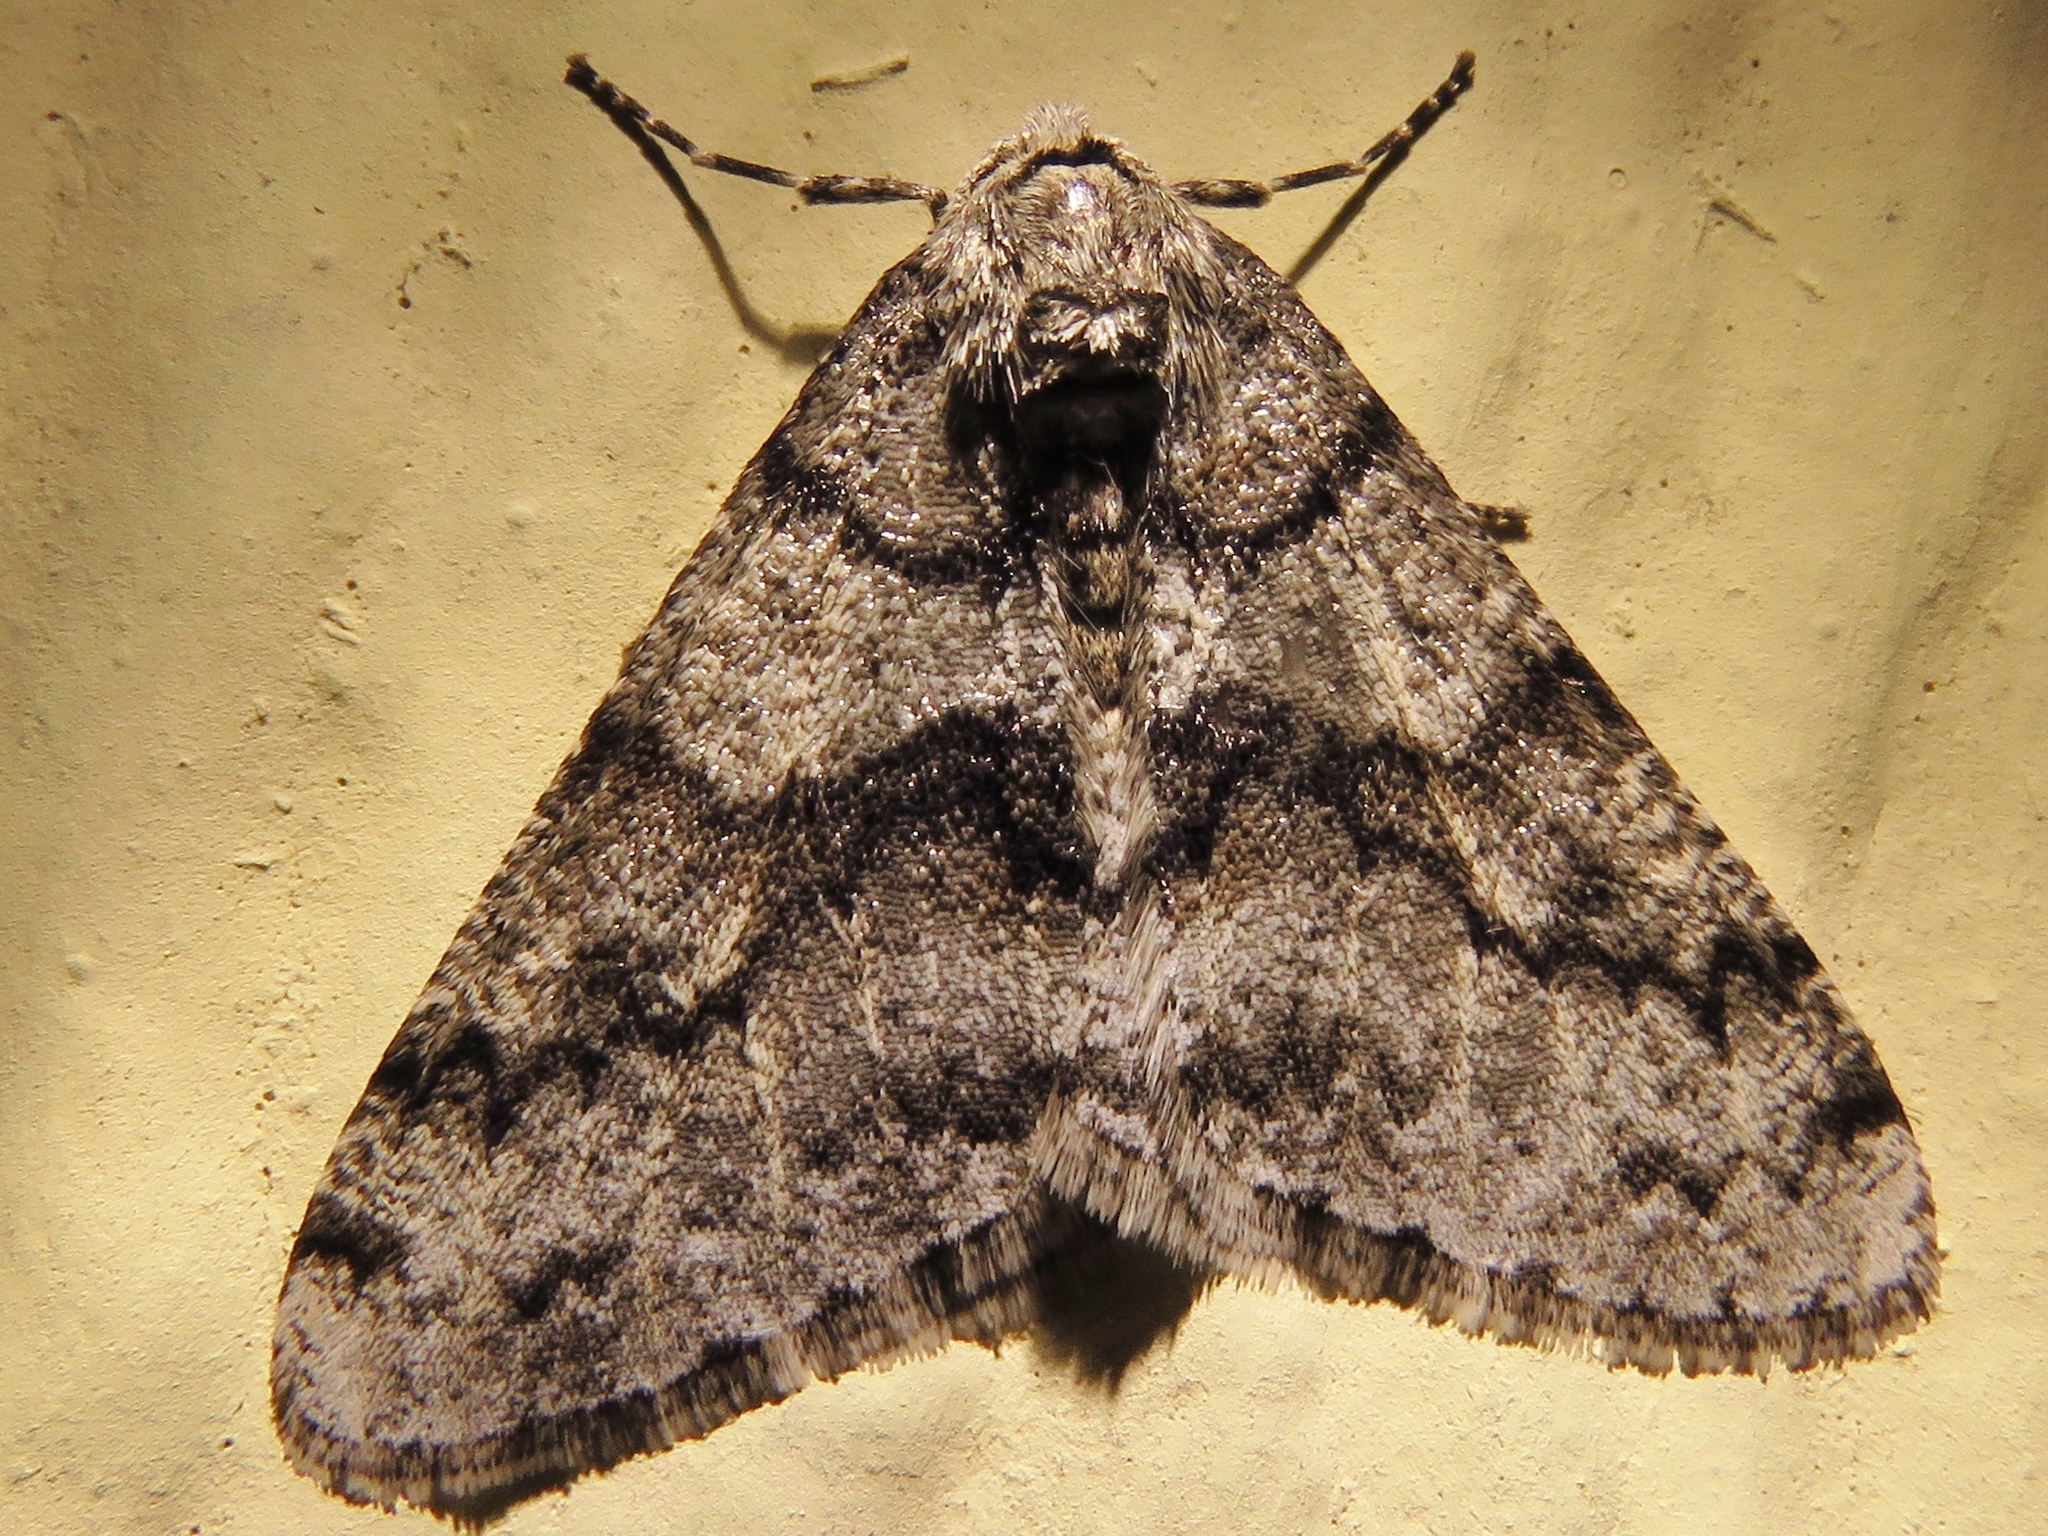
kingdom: Animalia
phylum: Arthropoda
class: Insecta
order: Lepidoptera
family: Geometridae
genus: Phigalia
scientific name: Phigalia denticulata
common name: Toothed phigalia
